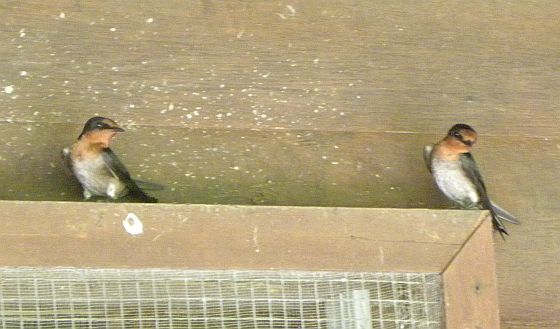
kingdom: Animalia
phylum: Chordata
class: Aves
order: Passeriformes
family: Hirundinidae
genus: Hirundo
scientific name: Hirundo tahitica
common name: Pacific swallow
